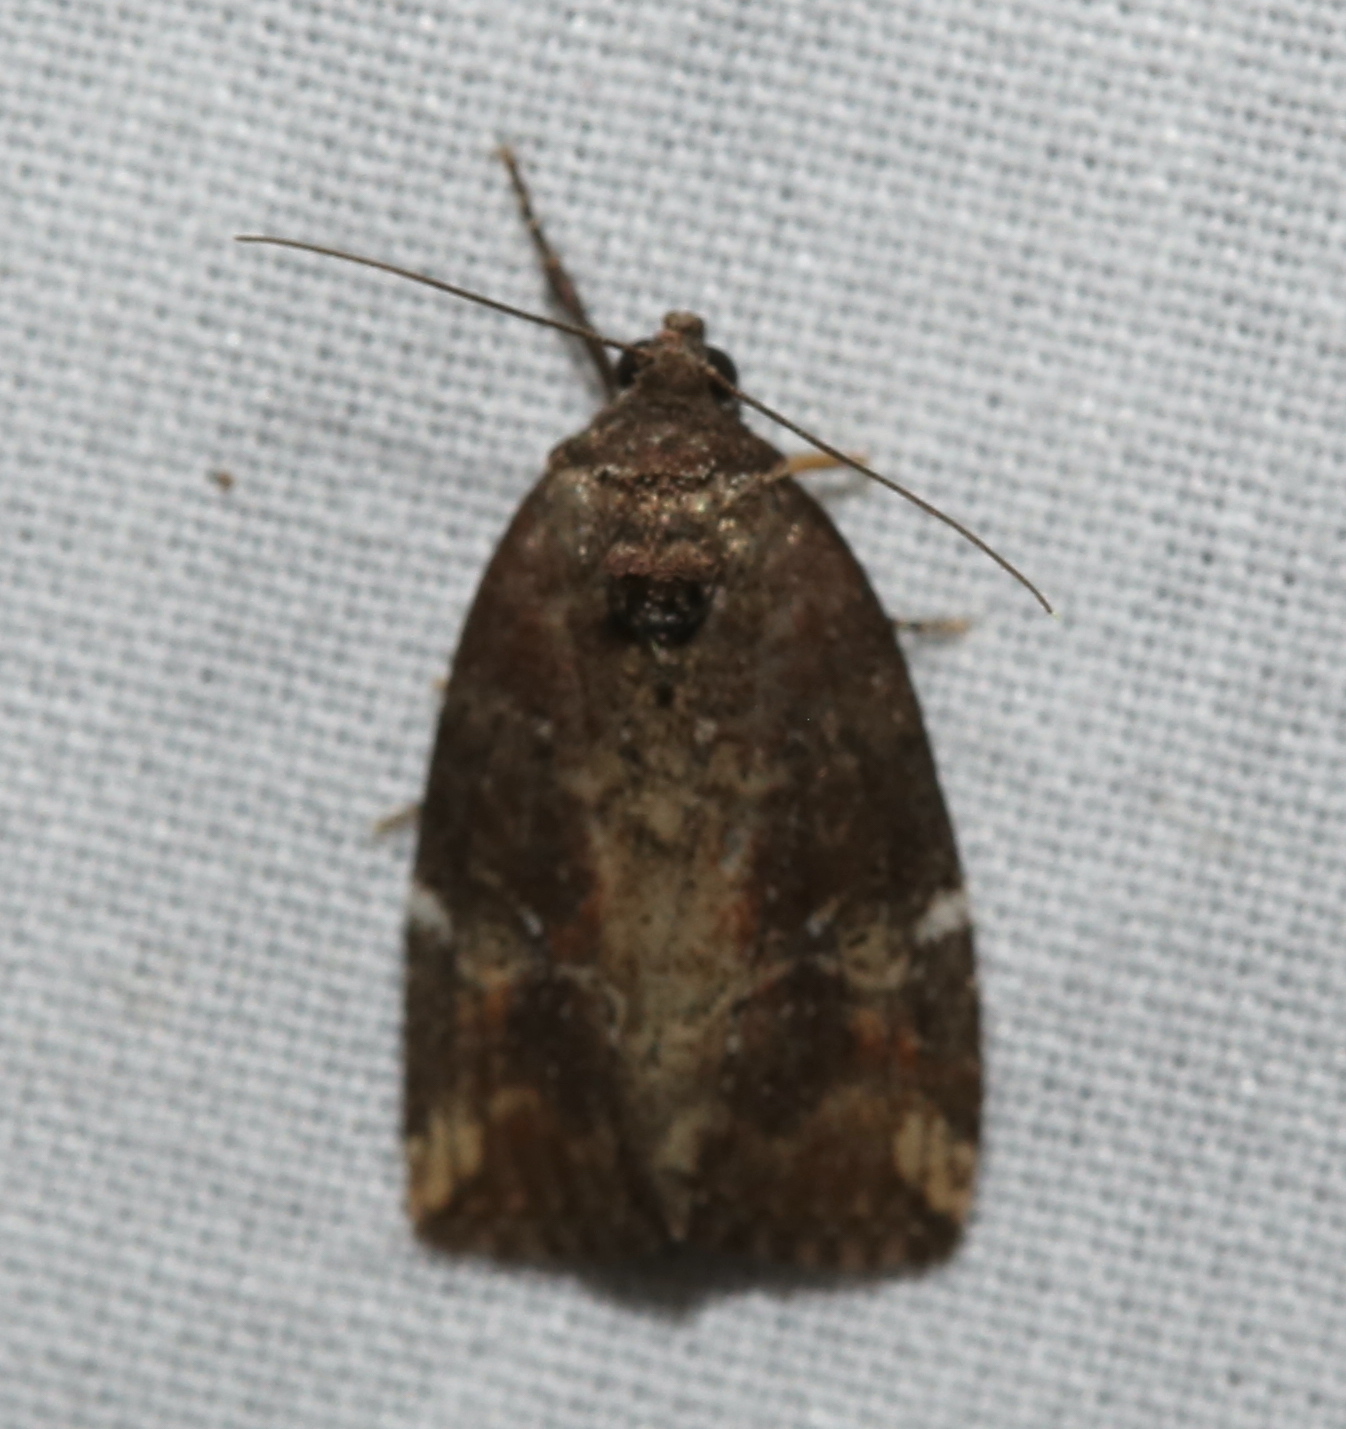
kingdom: Animalia
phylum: Arthropoda
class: Insecta
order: Lepidoptera
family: Noctuidae
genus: Elaphria
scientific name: Elaphria versicolor
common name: Fir harlequin
